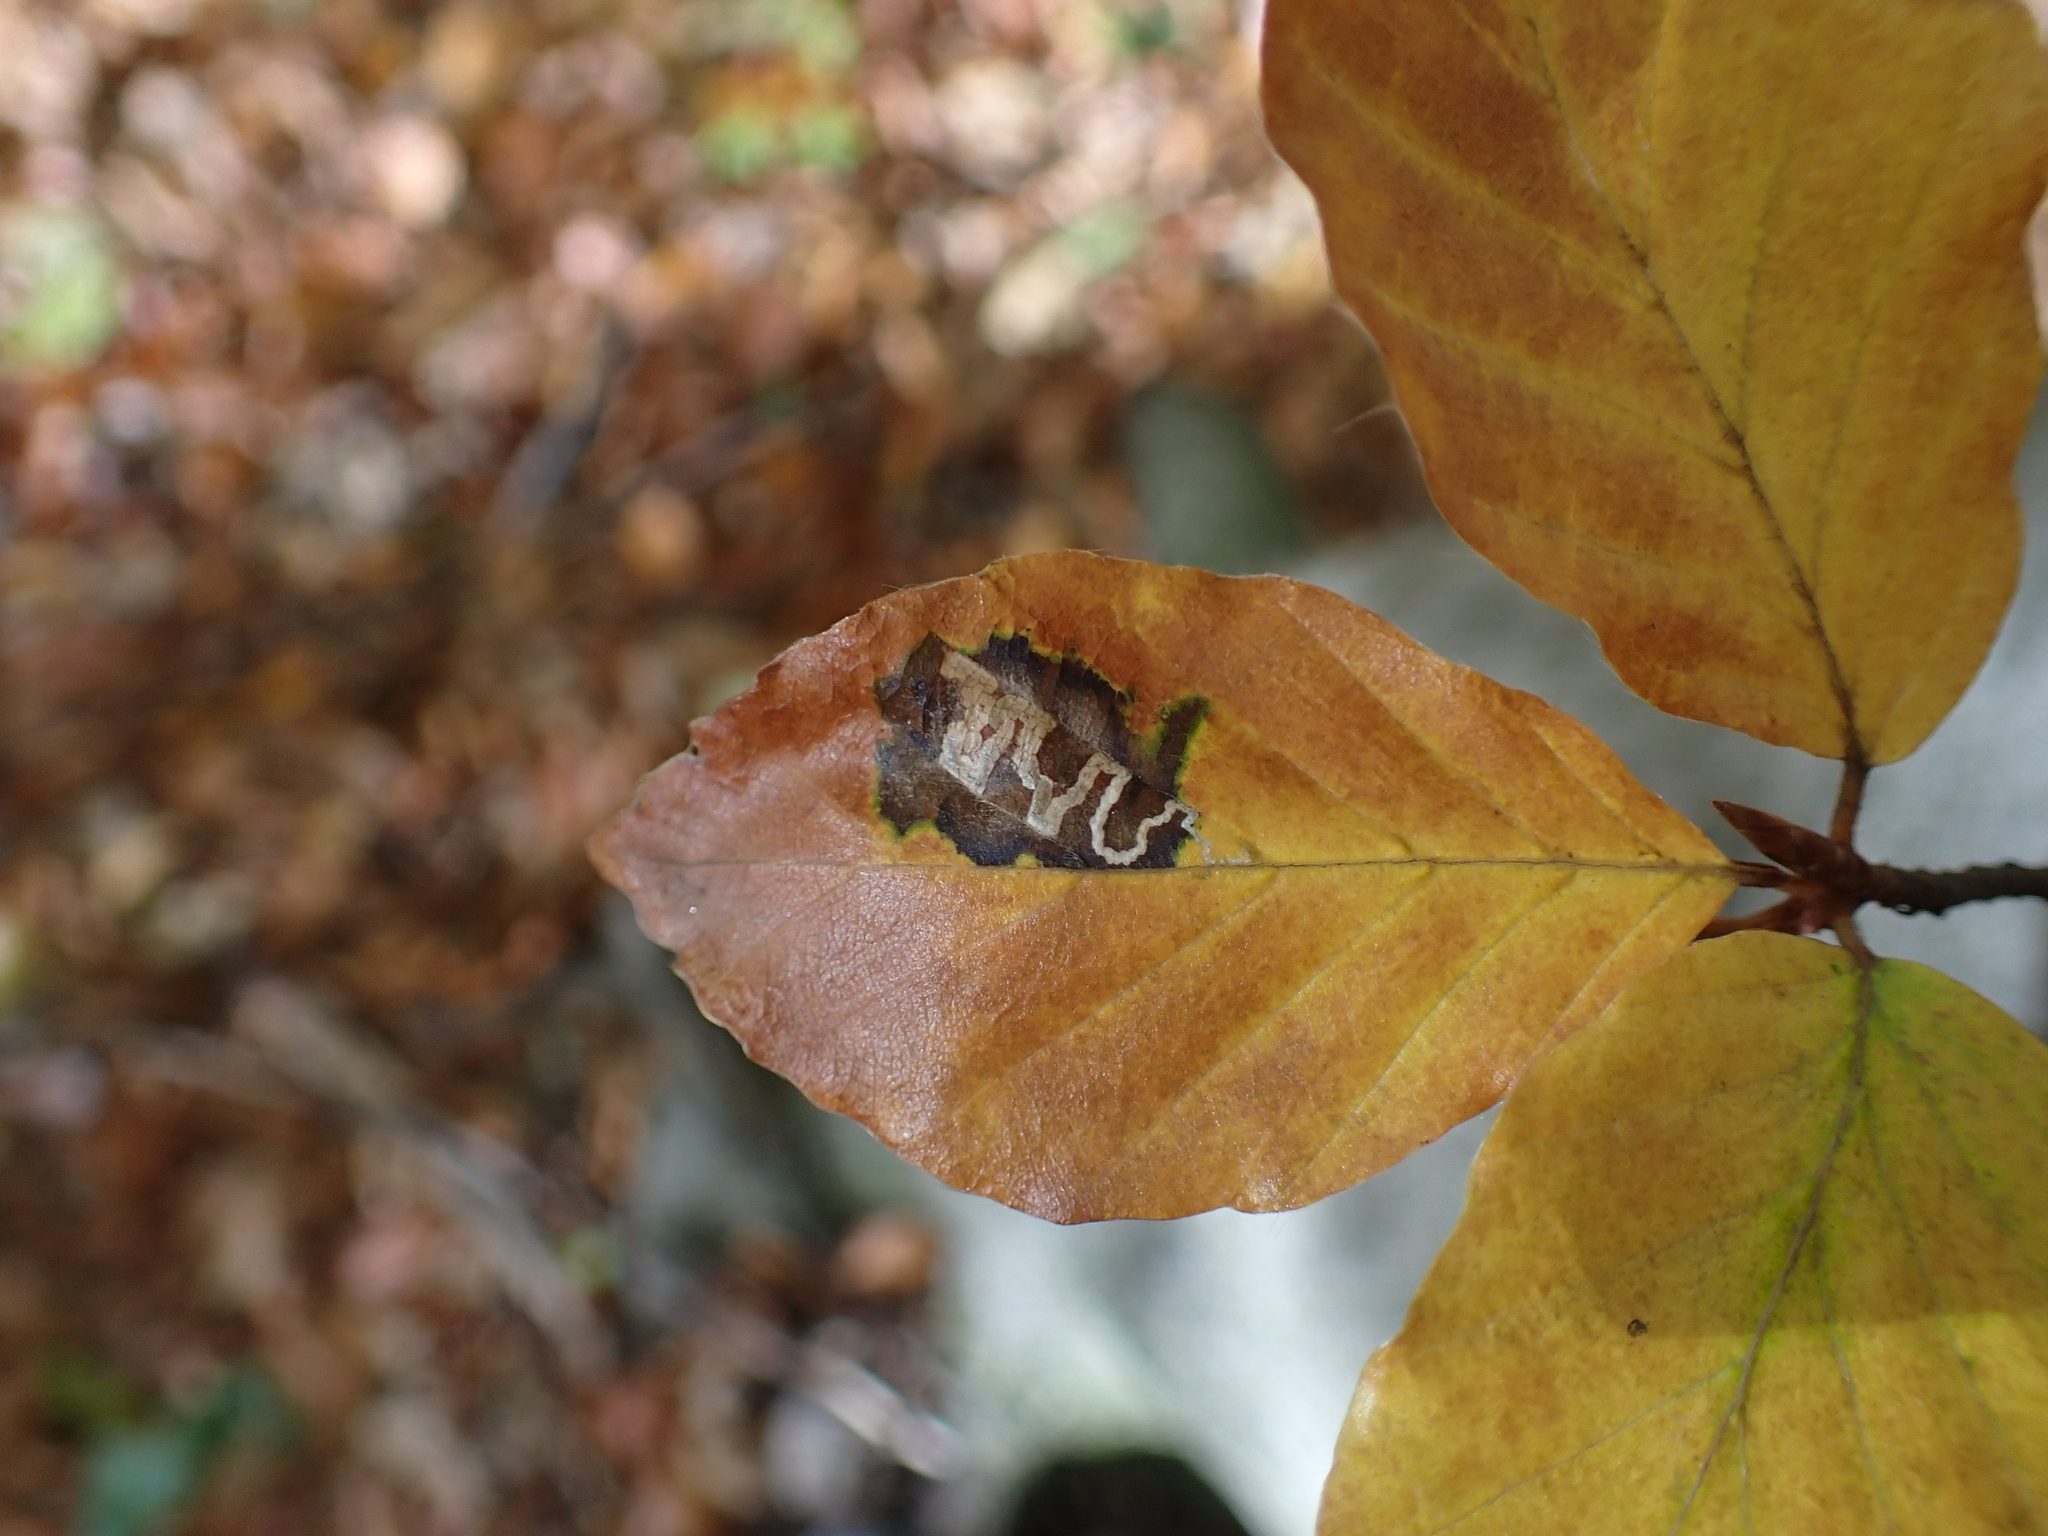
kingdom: Animalia
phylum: Arthropoda
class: Insecta
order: Lepidoptera
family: Nepticulidae
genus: Stigmella
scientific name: Stigmella tityrella
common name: Small beech pigmy
